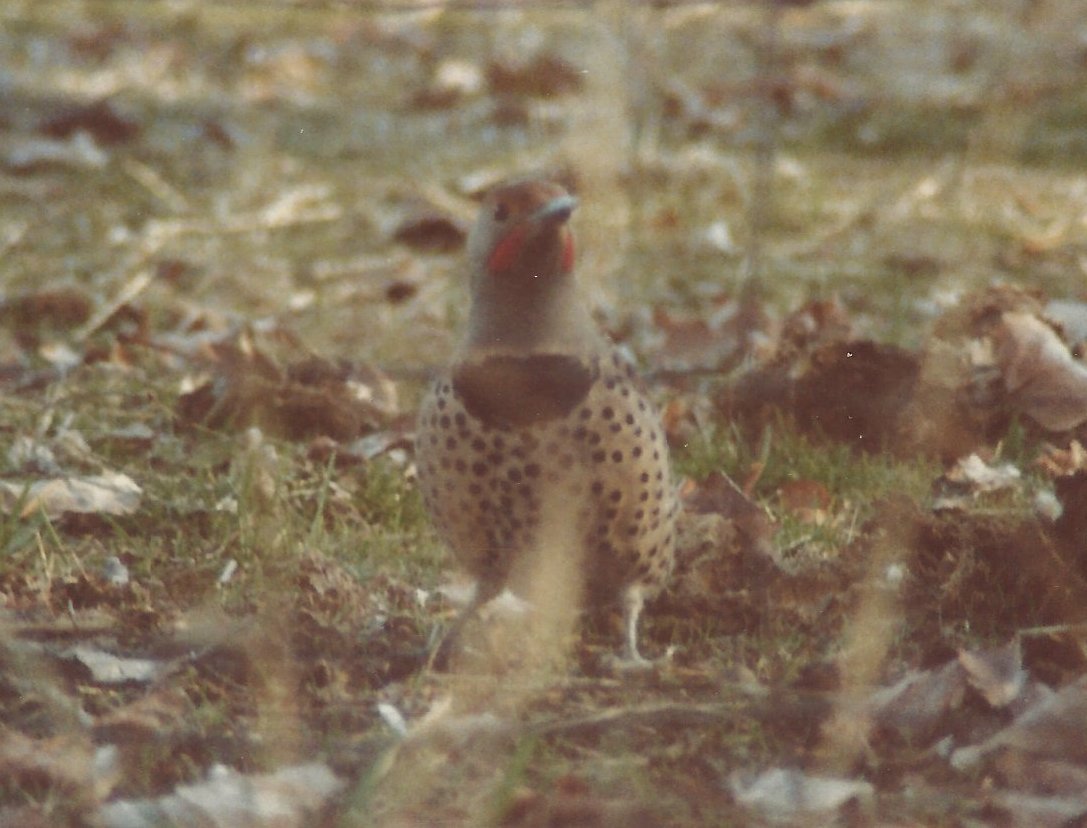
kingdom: Animalia
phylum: Chordata
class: Aves
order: Piciformes
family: Picidae
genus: Colaptes
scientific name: Colaptes auratus
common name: Northern flicker
